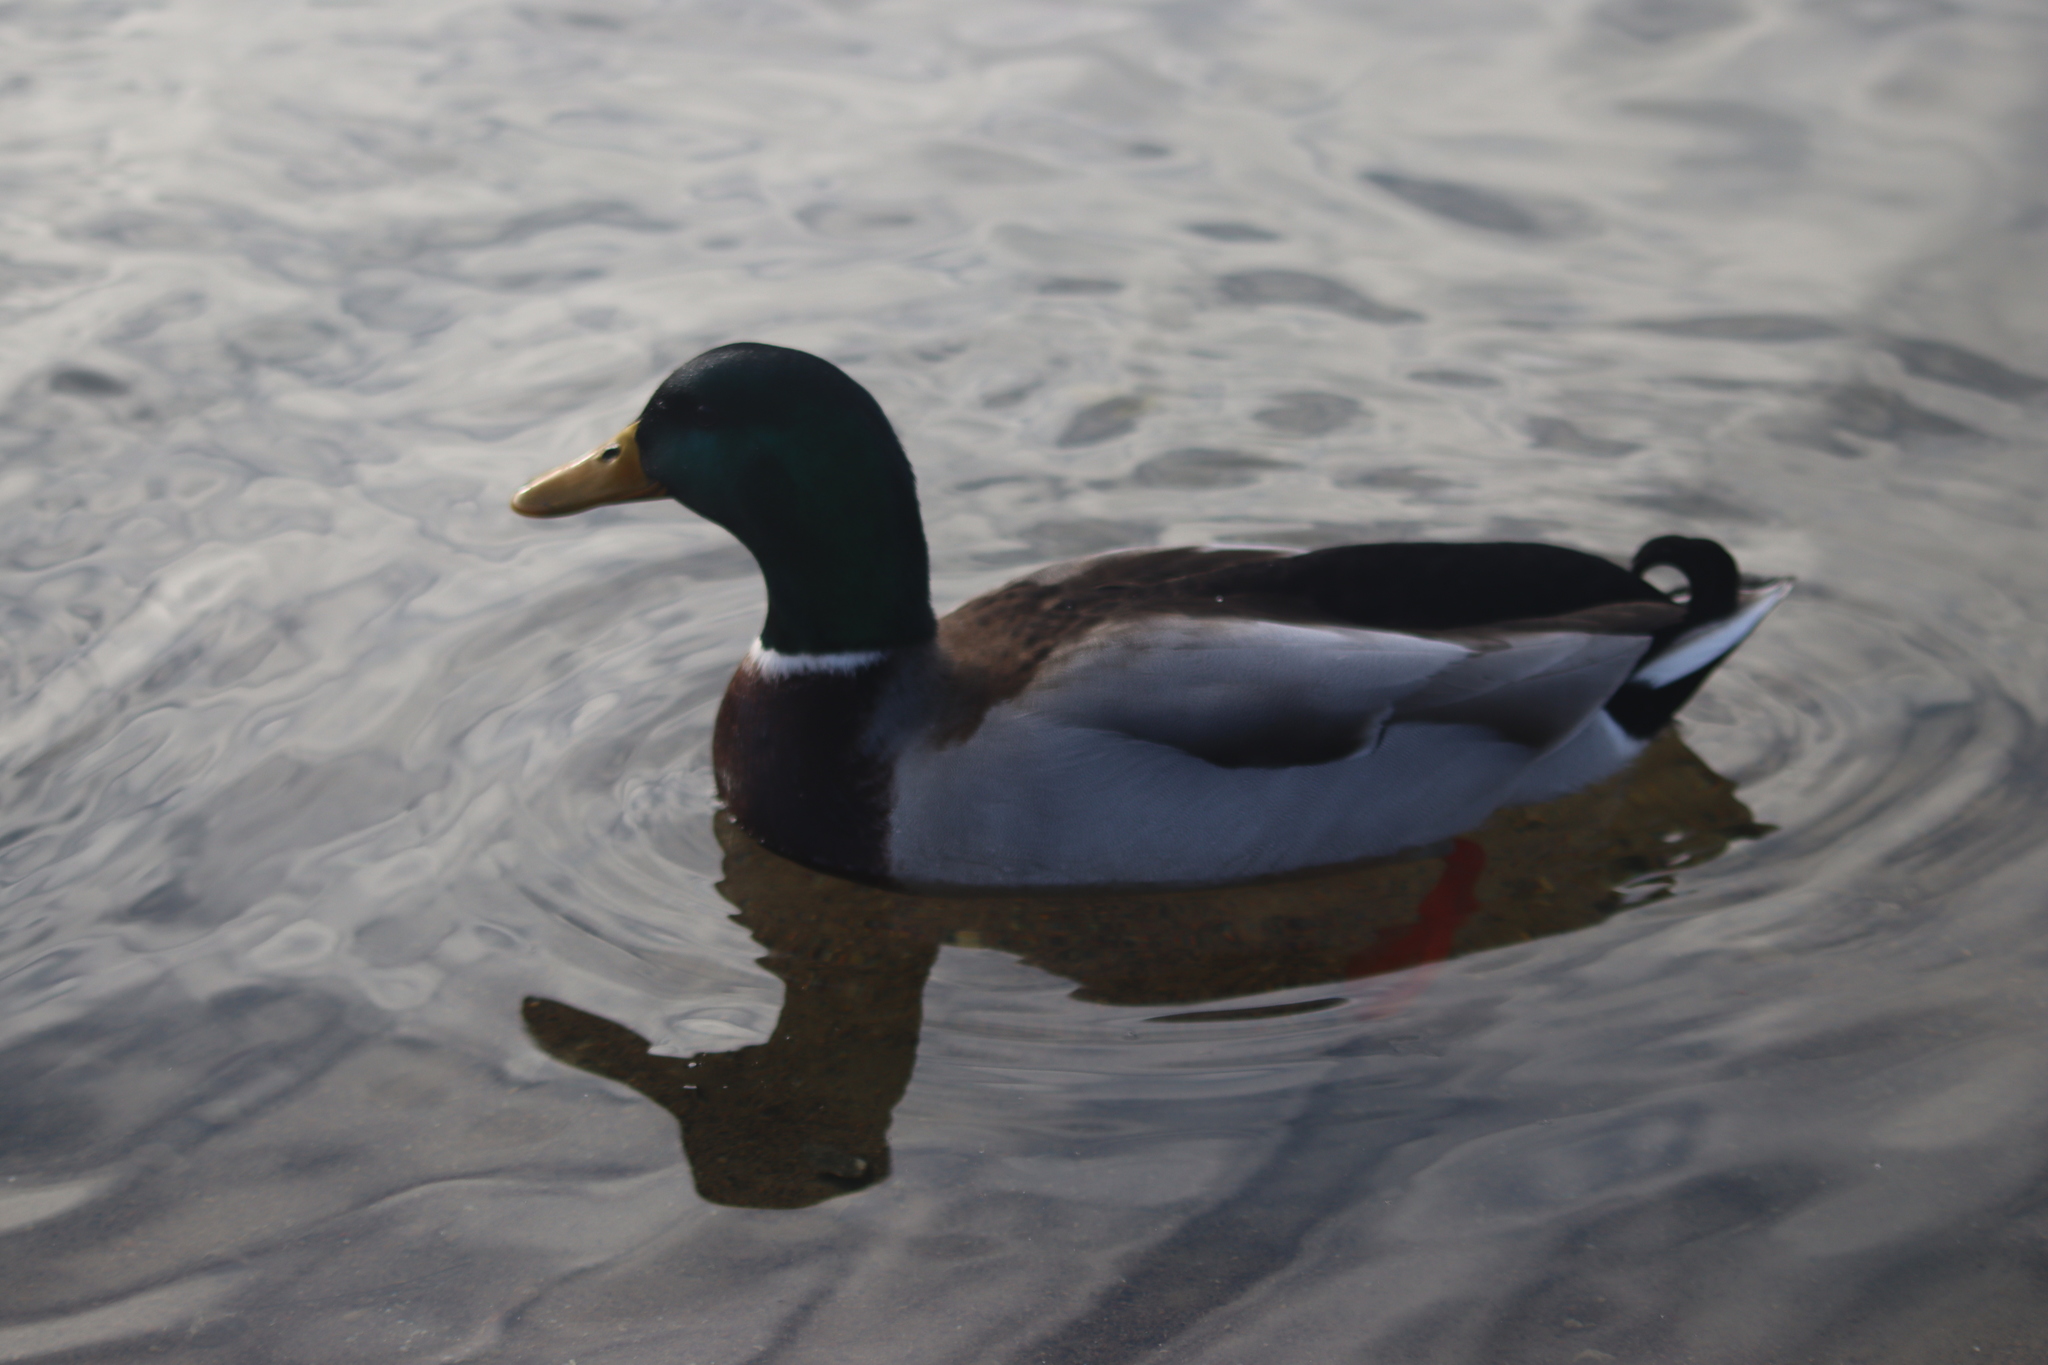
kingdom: Animalia
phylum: Chordata
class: Aves
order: Anseriformes
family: Anatidae
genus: Anas
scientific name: Anas platyrhynchos
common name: Mallard
